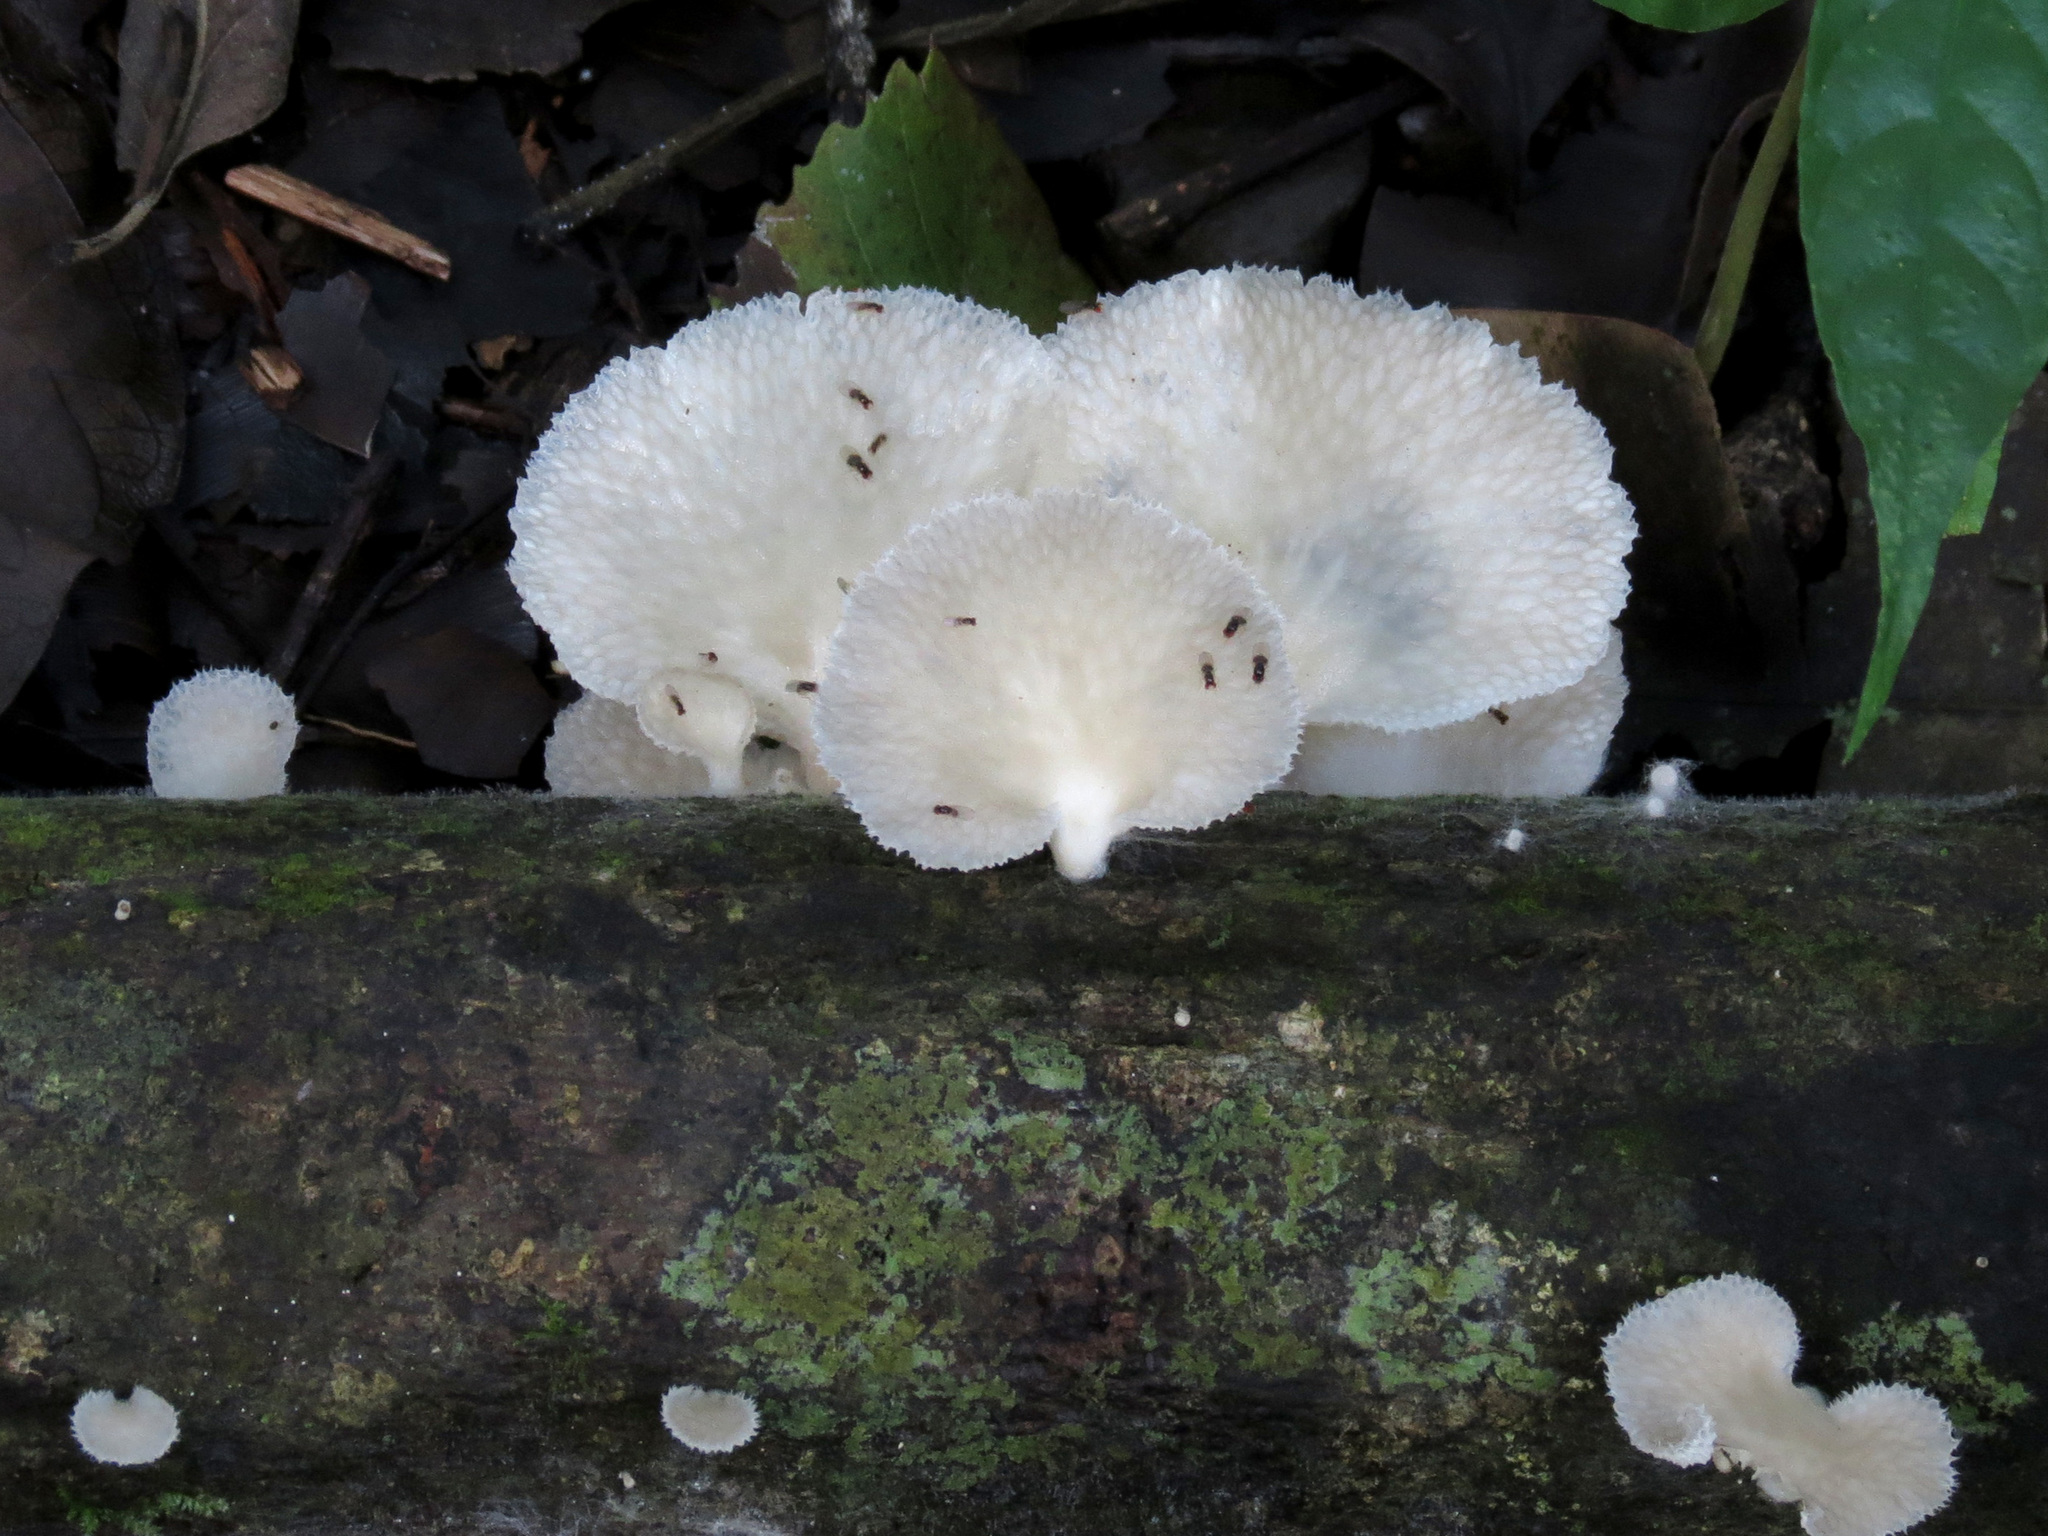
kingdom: Fungi
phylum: Basidiomycota
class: Agaricomycetes
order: Polyporales
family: Polyporaceae
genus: Favolus
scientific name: Favolus tenuiculus
